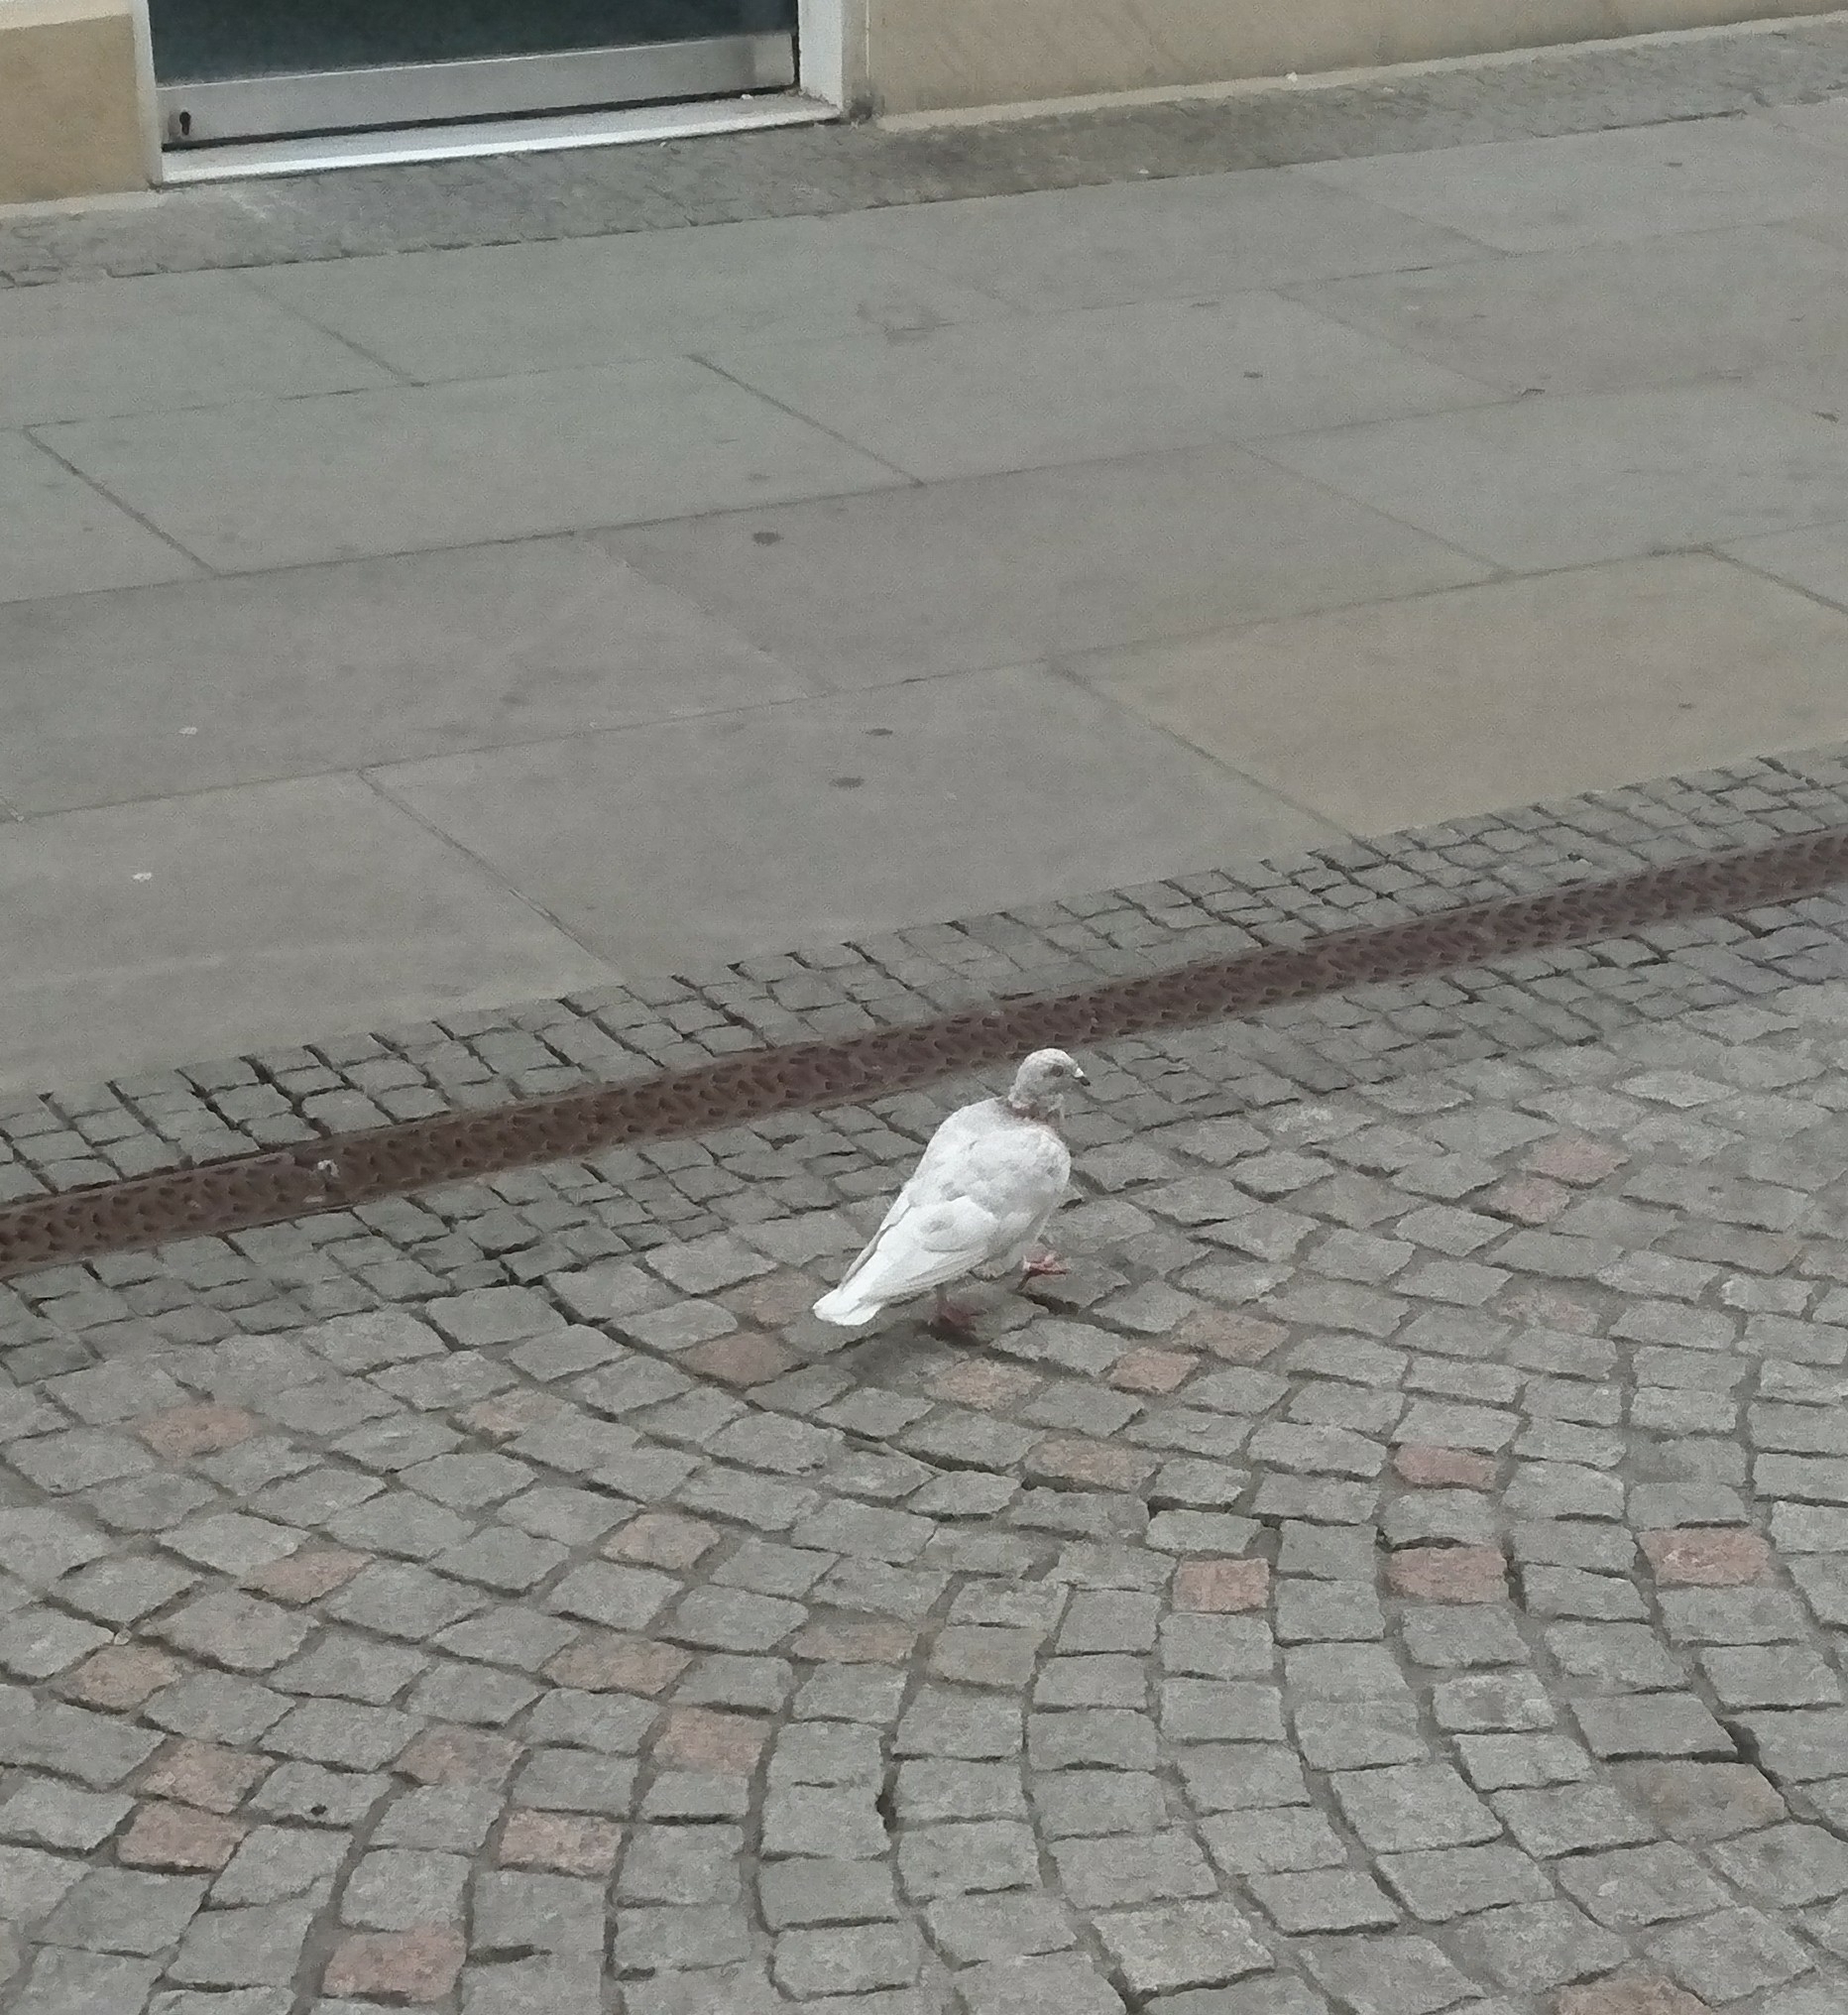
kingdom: Animalia
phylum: Chordata
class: Aves
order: Columbiformes
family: Columbidae
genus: Columba
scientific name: Columba livia
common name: Rock pigeon
